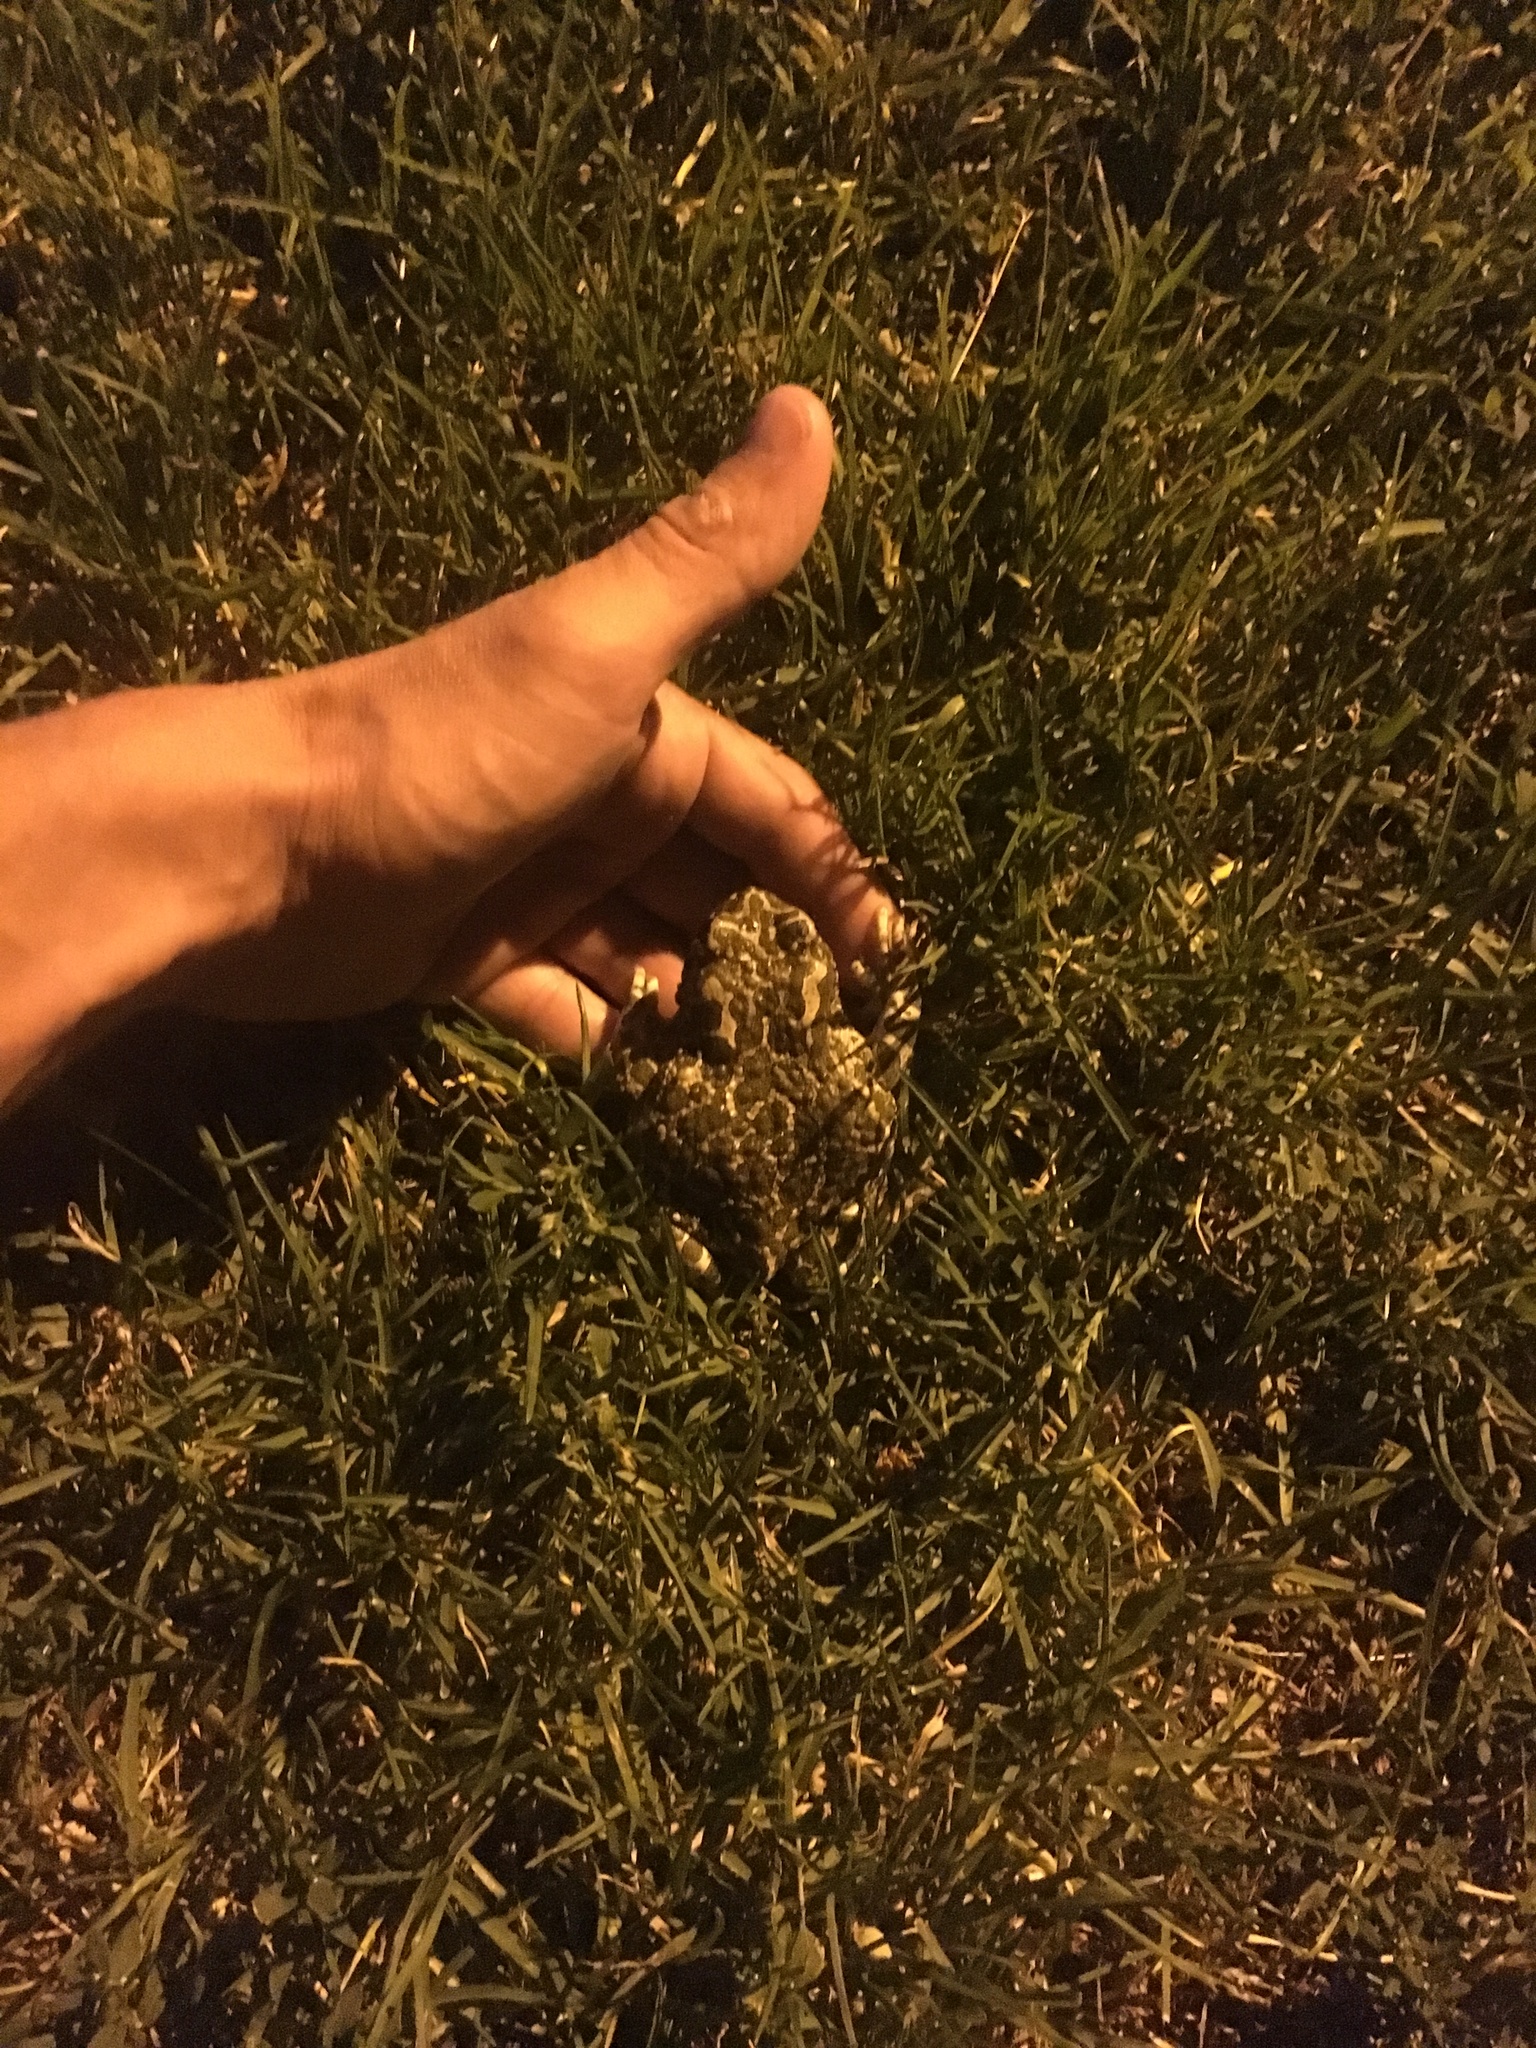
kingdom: Animalia
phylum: Chordata
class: Amphibia
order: Anura
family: Bufonidae
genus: Bufotes
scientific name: Bufotes viridis
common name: European green toad
